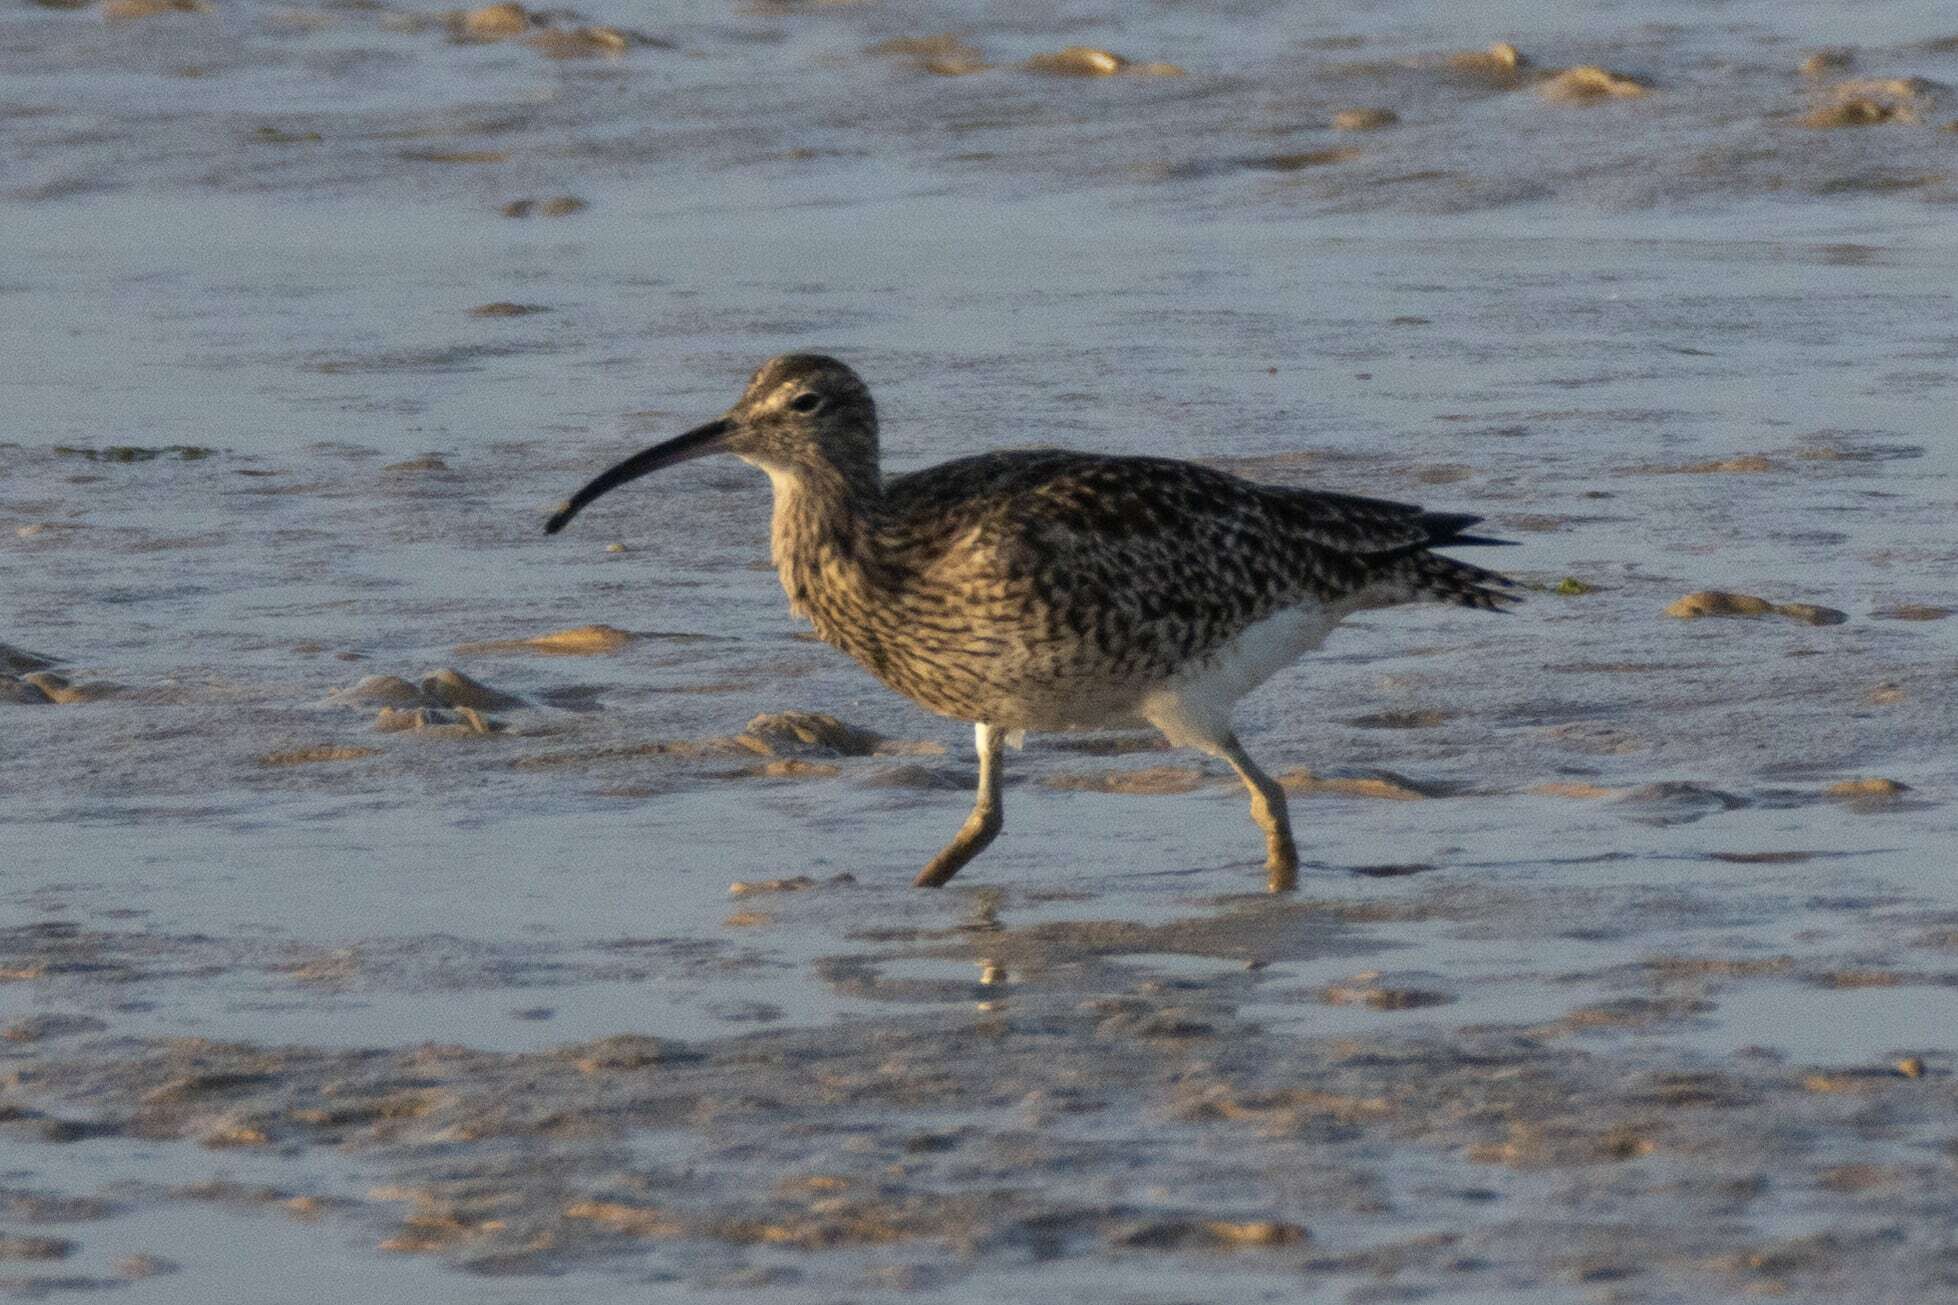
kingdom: Animalia
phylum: Chordata
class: Aves
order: Charadriiformes
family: Scolopacidae
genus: Numenius
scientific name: Numenius phaeopus
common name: Whimbrel
